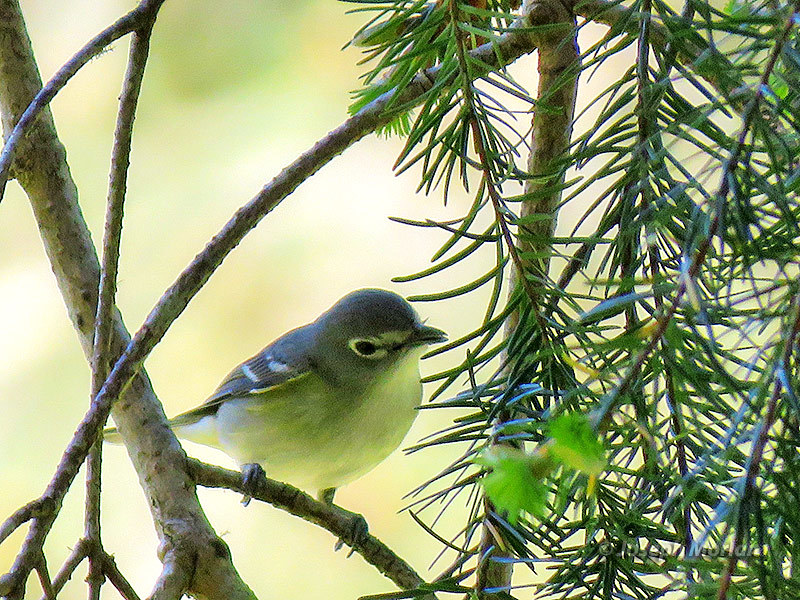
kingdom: Animalia
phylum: Chordata
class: Aves
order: Passeriformes
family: Vireonidae
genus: Vireo
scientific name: Vireo cassinii
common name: Cassin's vireo
